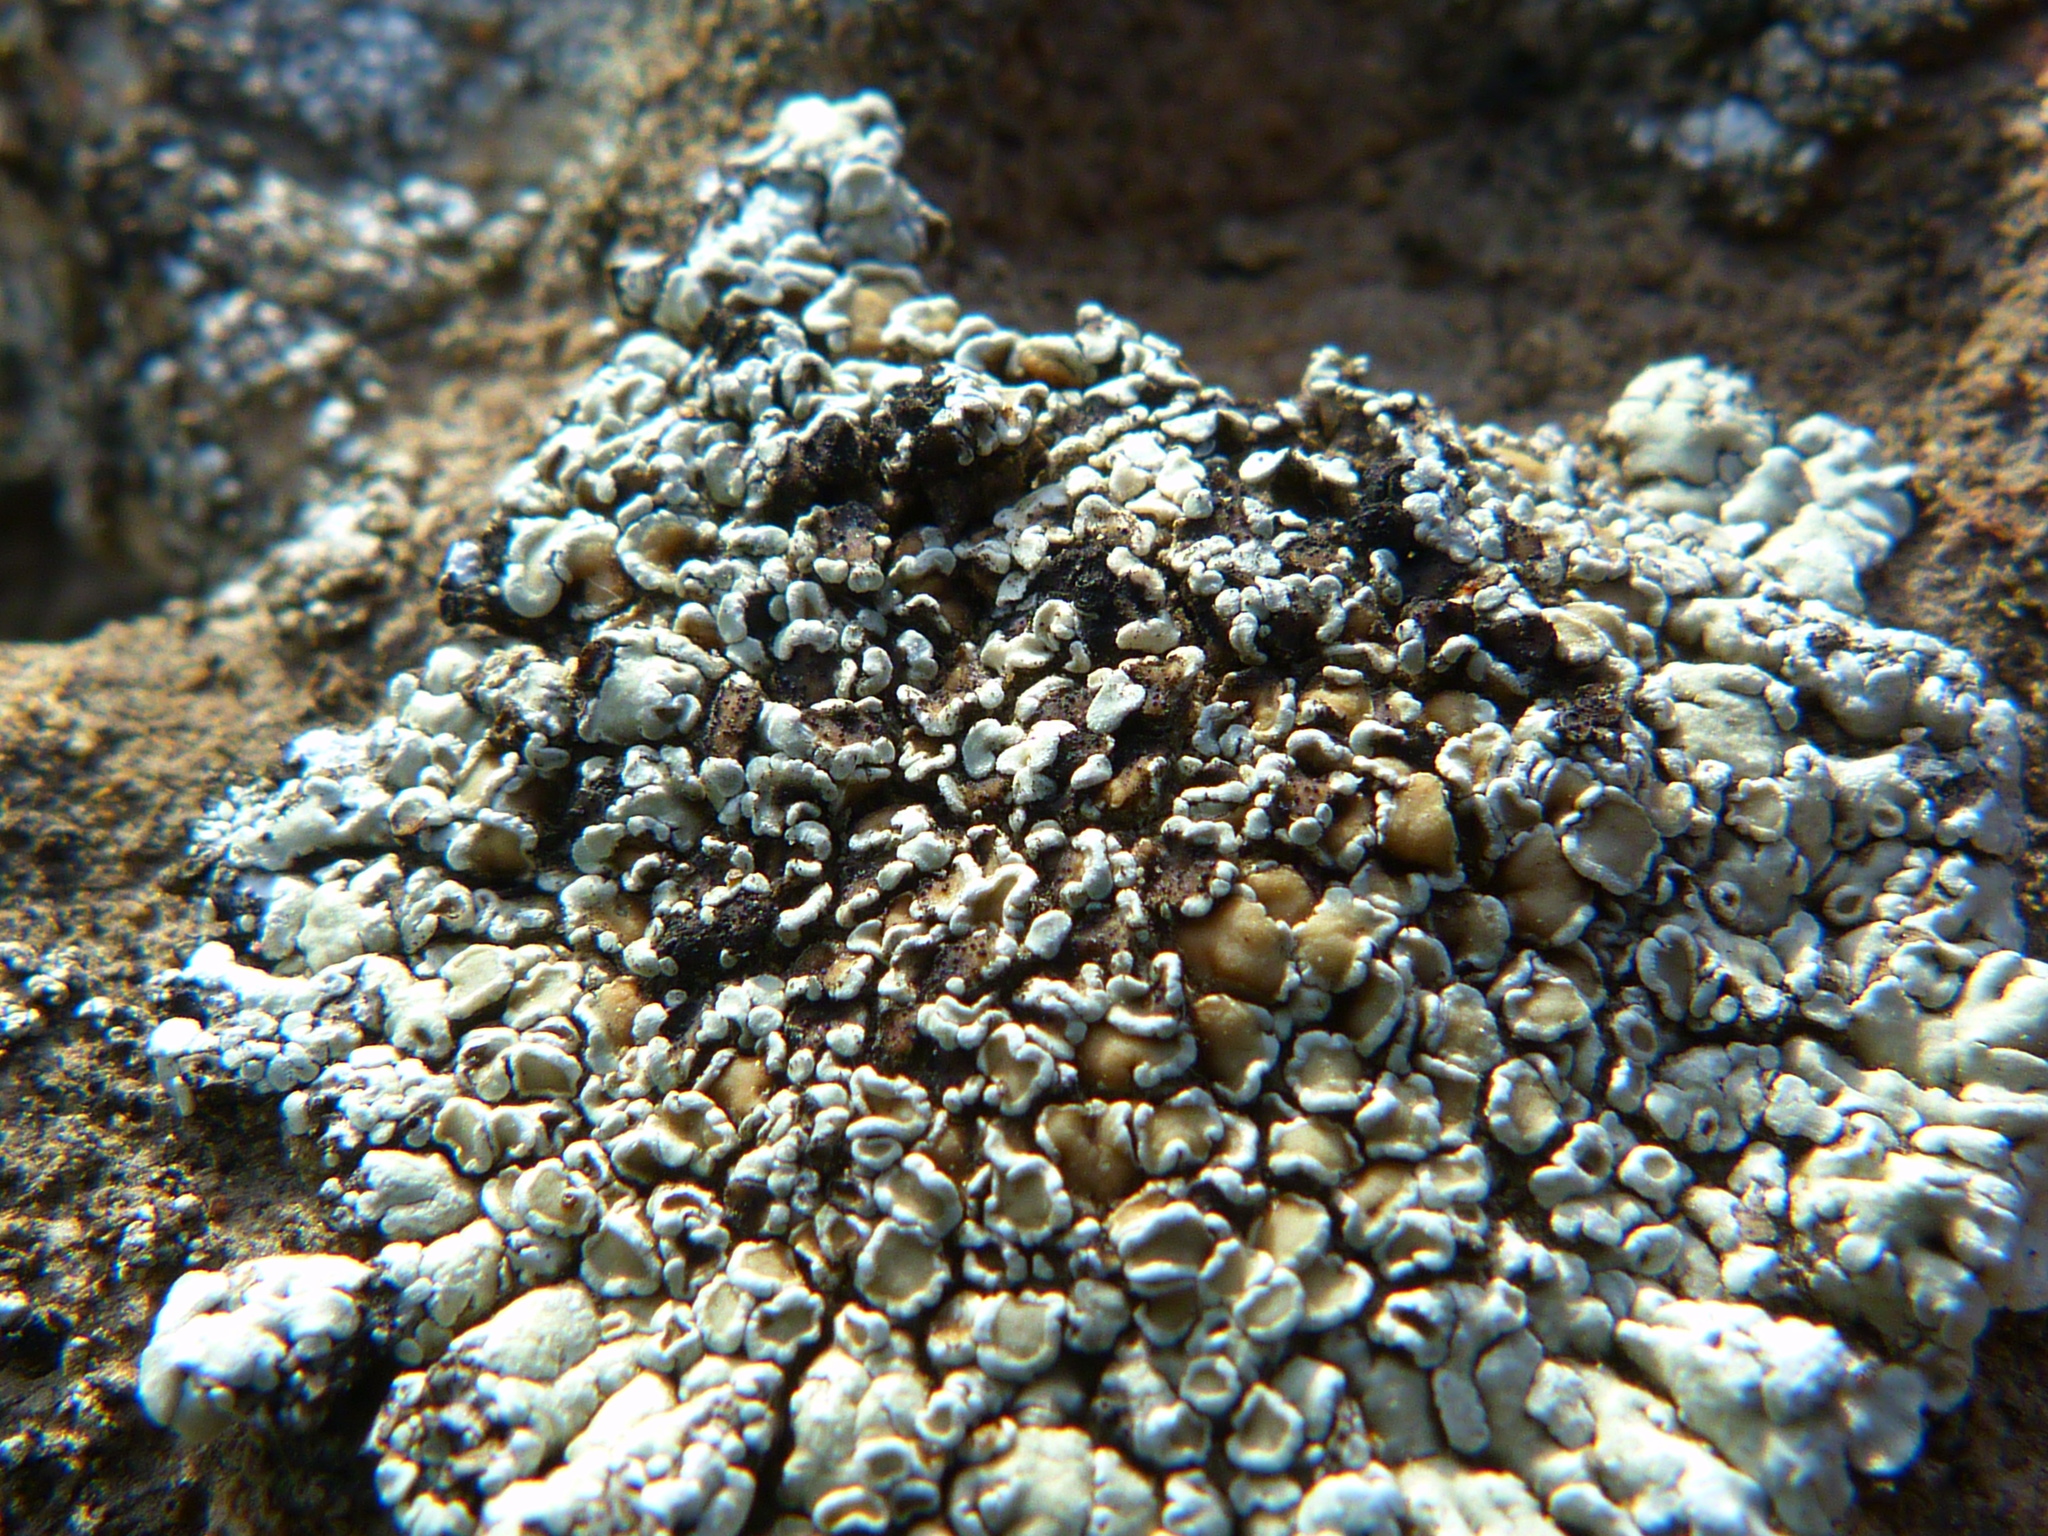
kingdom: Fungi
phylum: Ascomycota
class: Lecanoromycetes
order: Lecanorales
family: Lecanoraceae
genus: Protoparmeliopsis
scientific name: Protoparmeliopsis sierrae
